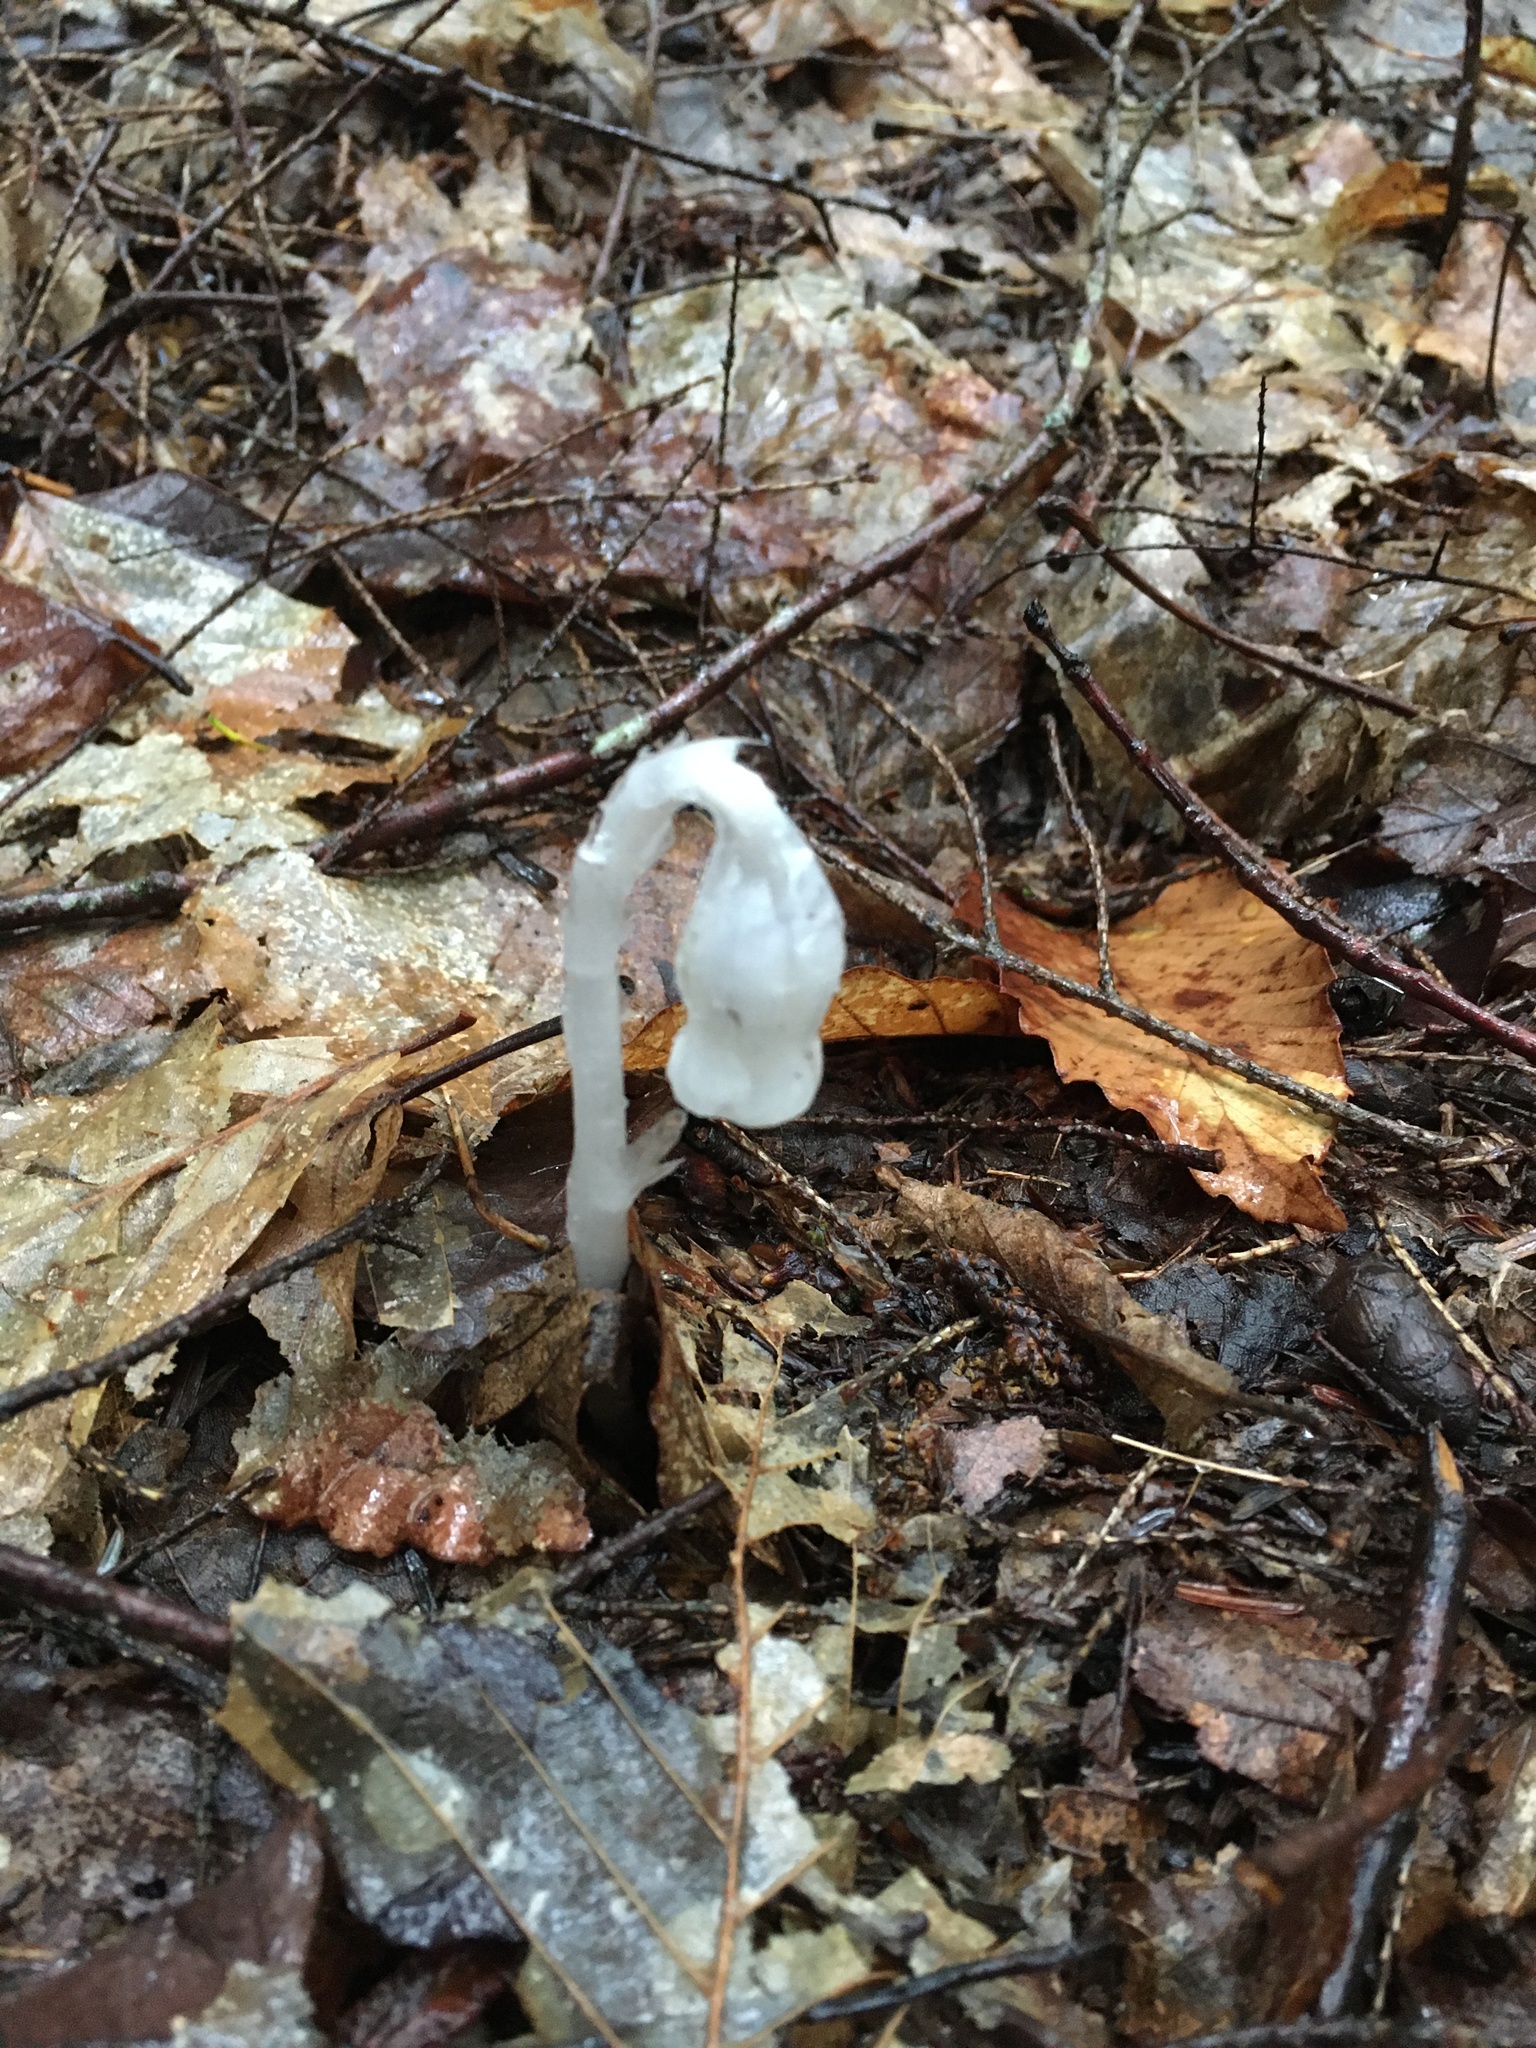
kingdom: Plantae
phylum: Tracheophyta
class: Magnoliopsida
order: Ericales
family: Ericaceae
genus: Monotropa
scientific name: Monotropa uniflora
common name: Convulsion root
